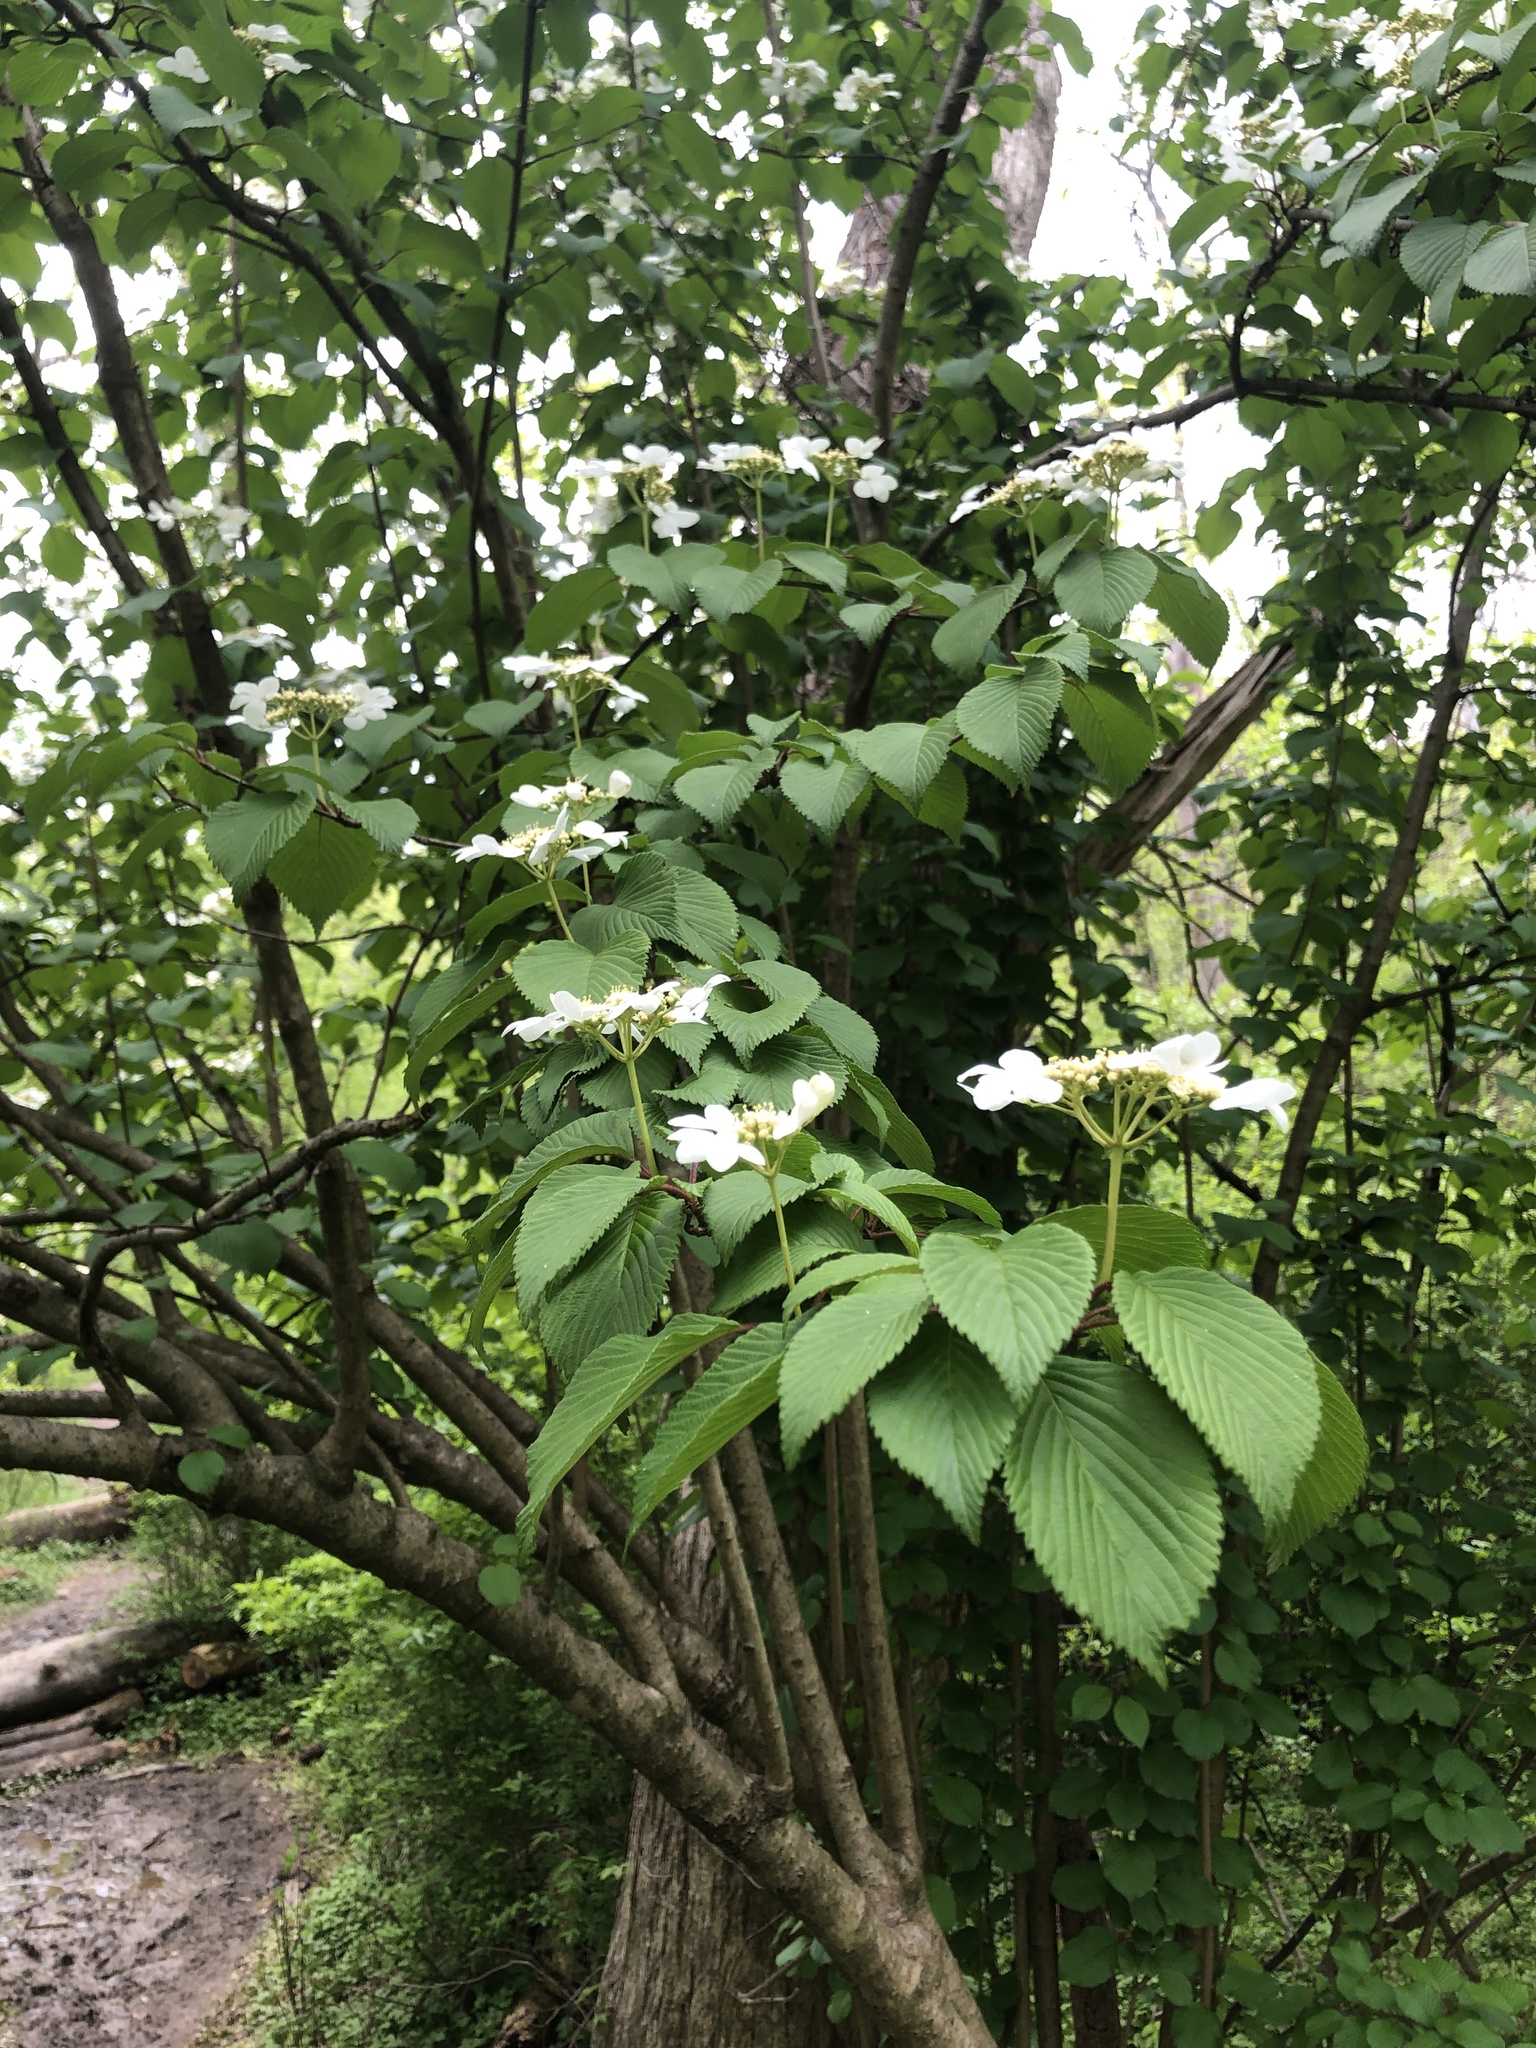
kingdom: Plantae
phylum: Tracheophyta
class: Magnoliopsida
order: Dipsacales
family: Viburnaceae
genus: Viburnum
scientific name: Viburnum plicatum
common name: Japanese snowball
